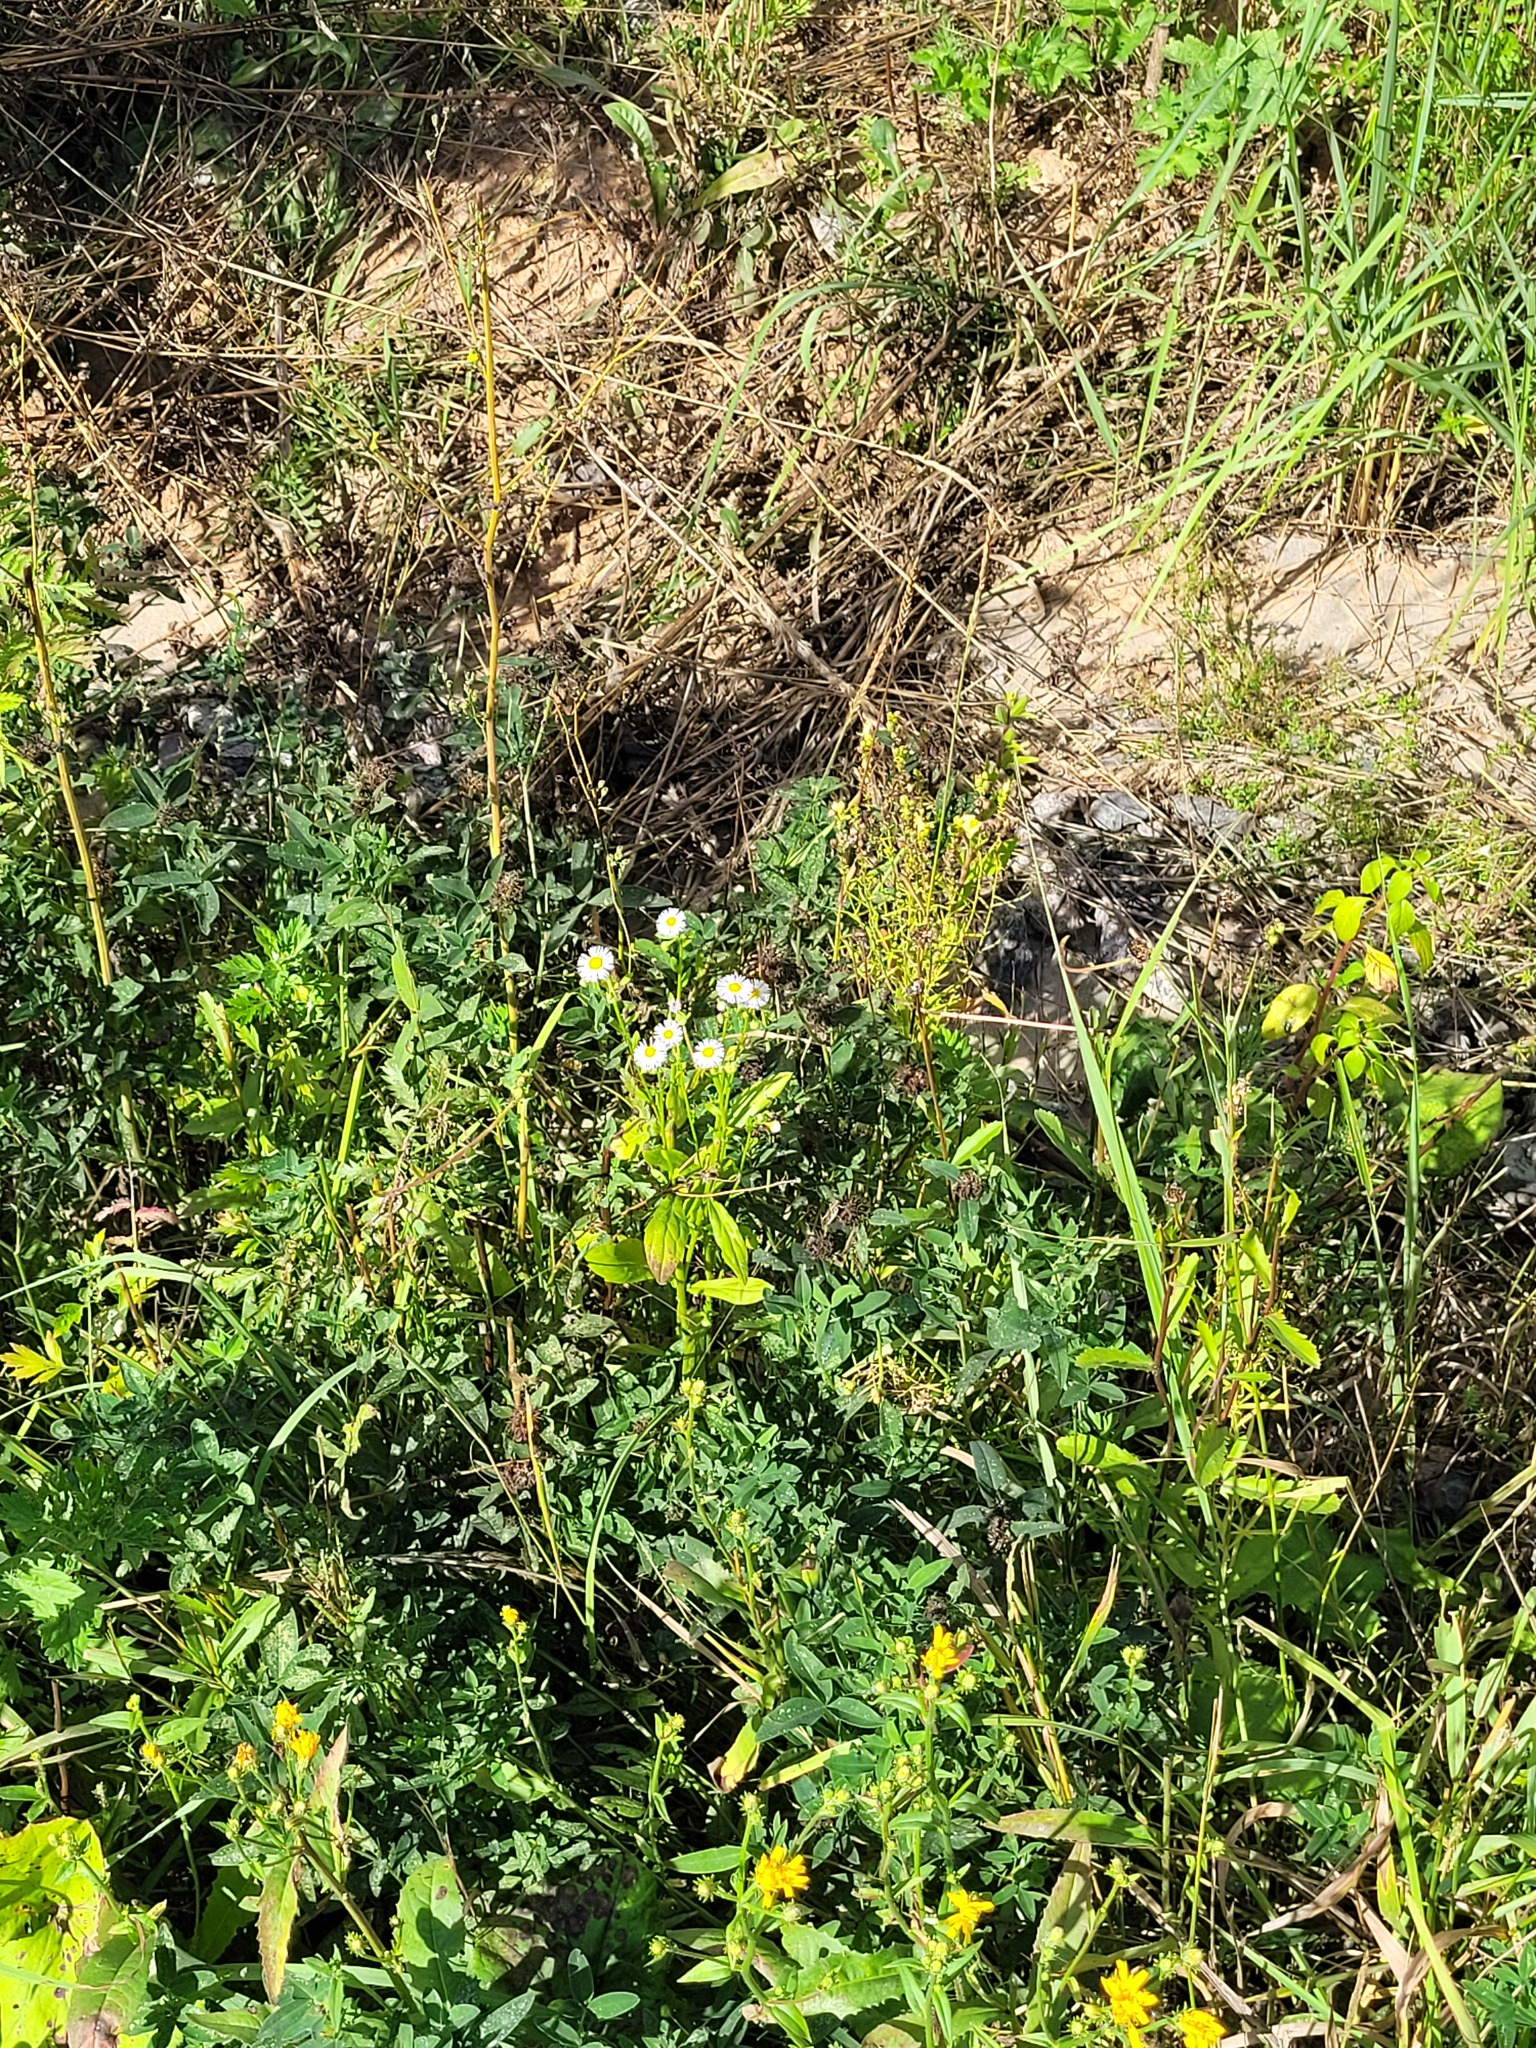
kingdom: Plantae
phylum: Tracheophyta
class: Magnoliopsida
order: Asterales
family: Asteraceae
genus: Erigeron
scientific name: Erigeron annuus
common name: Tall fleabane
